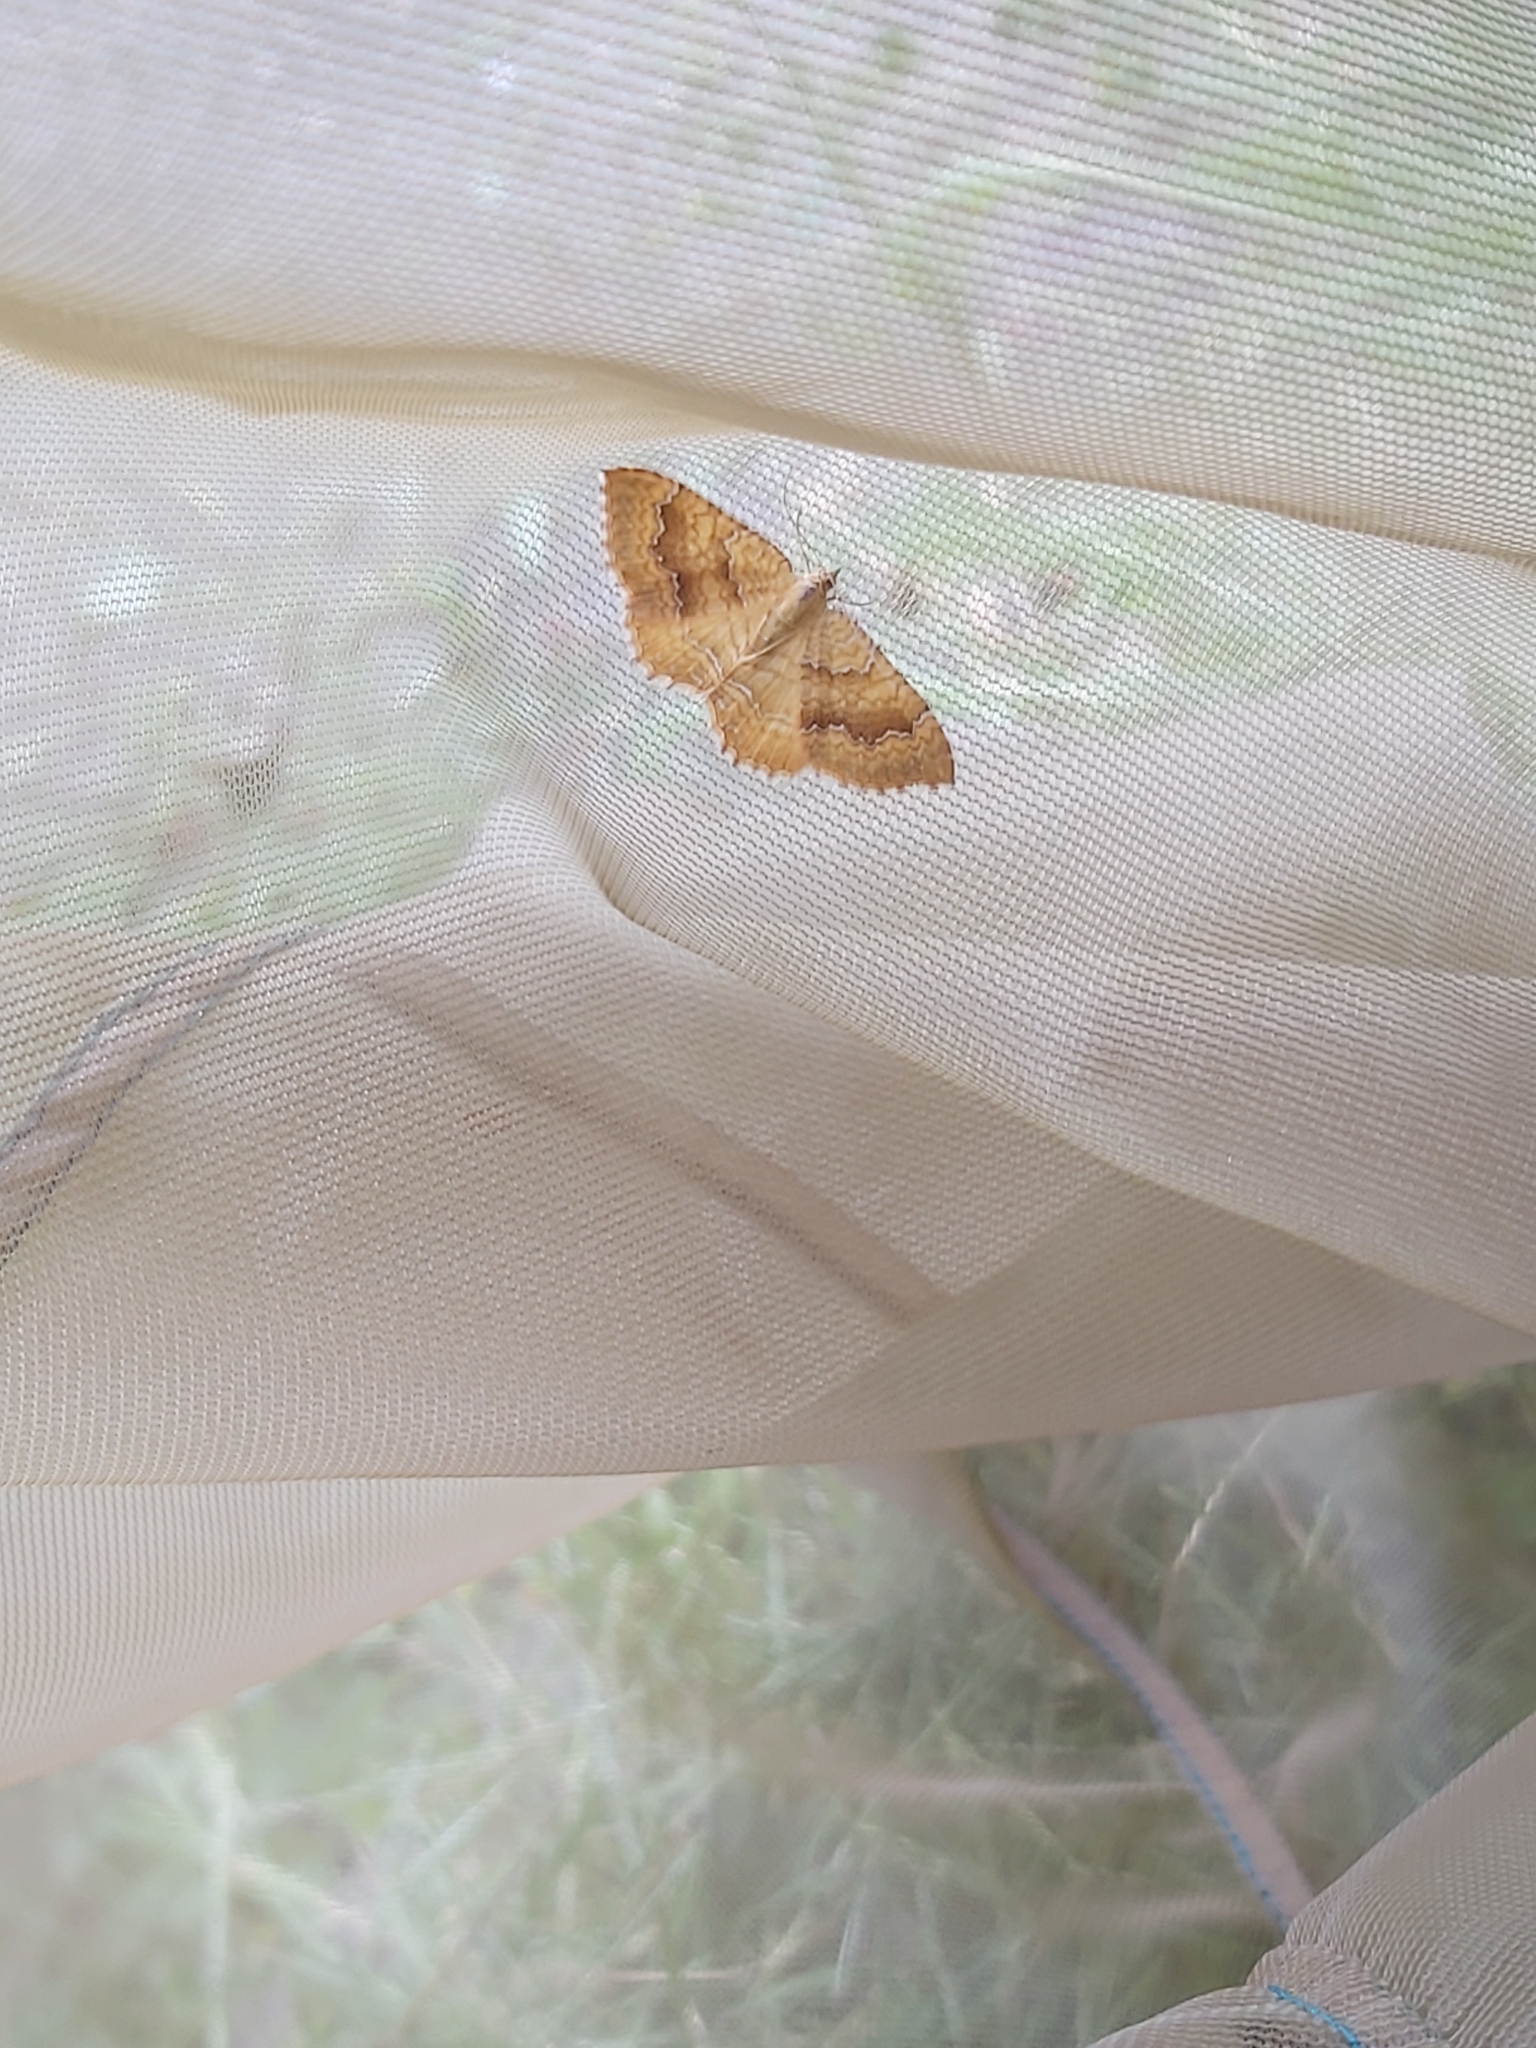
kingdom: Animalia
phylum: Arthropoda
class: Insecta
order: Lepidoptera
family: Geometridae
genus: Camptogramma
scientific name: Camptogramma bilineata
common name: Yellow shell
